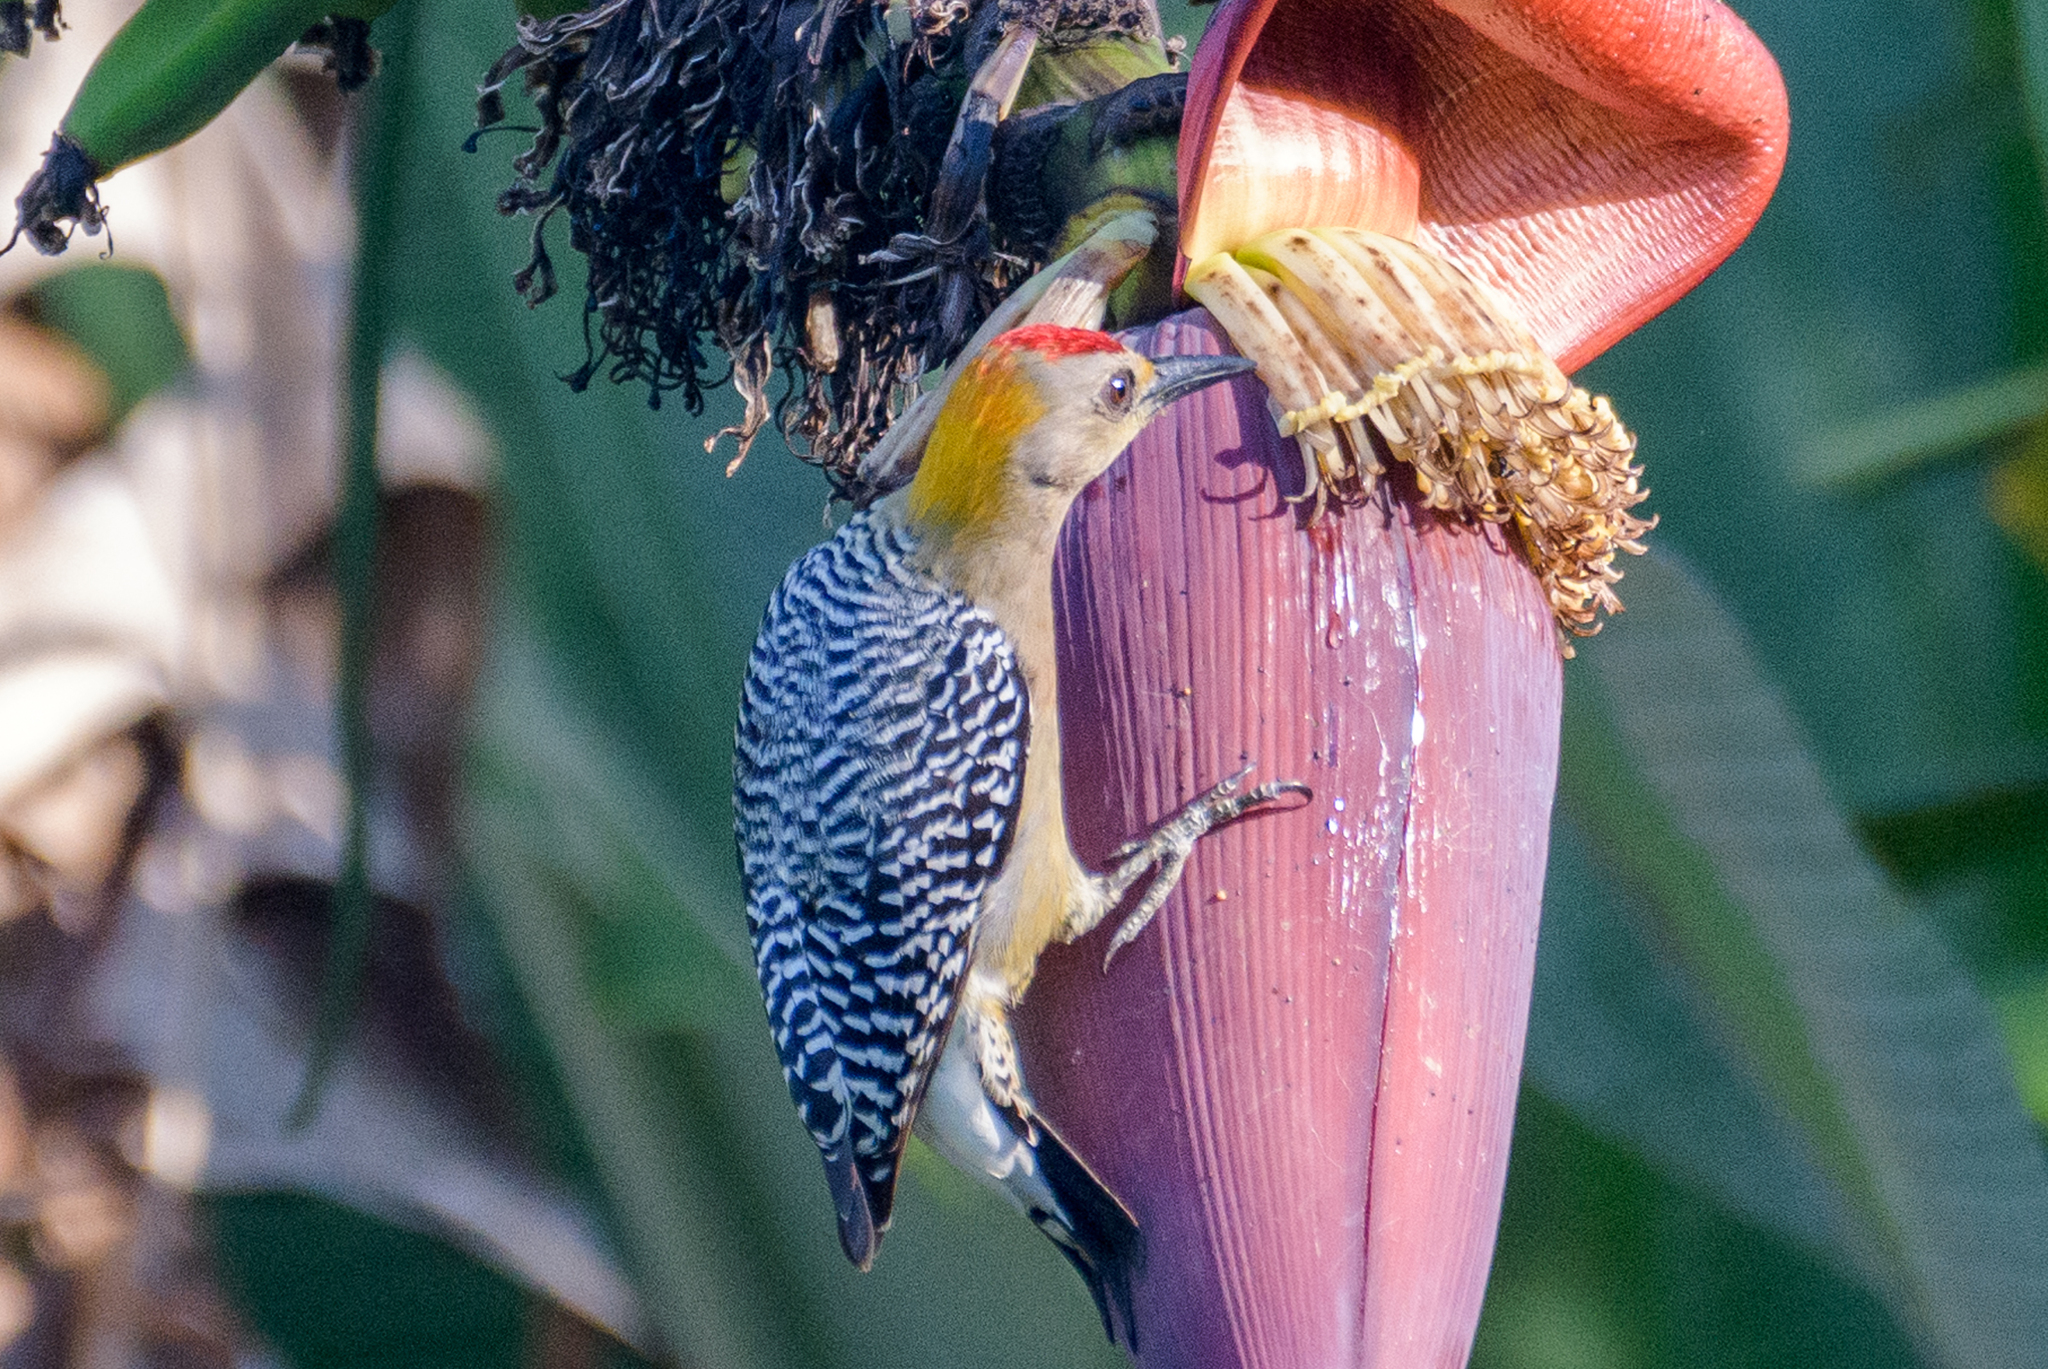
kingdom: Animalia
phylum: Chordata
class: Aves
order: Piciformes
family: Picidae
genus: Melanerpes
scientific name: Melanerpes hoffmannii
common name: Hoffmann's woodpecker
